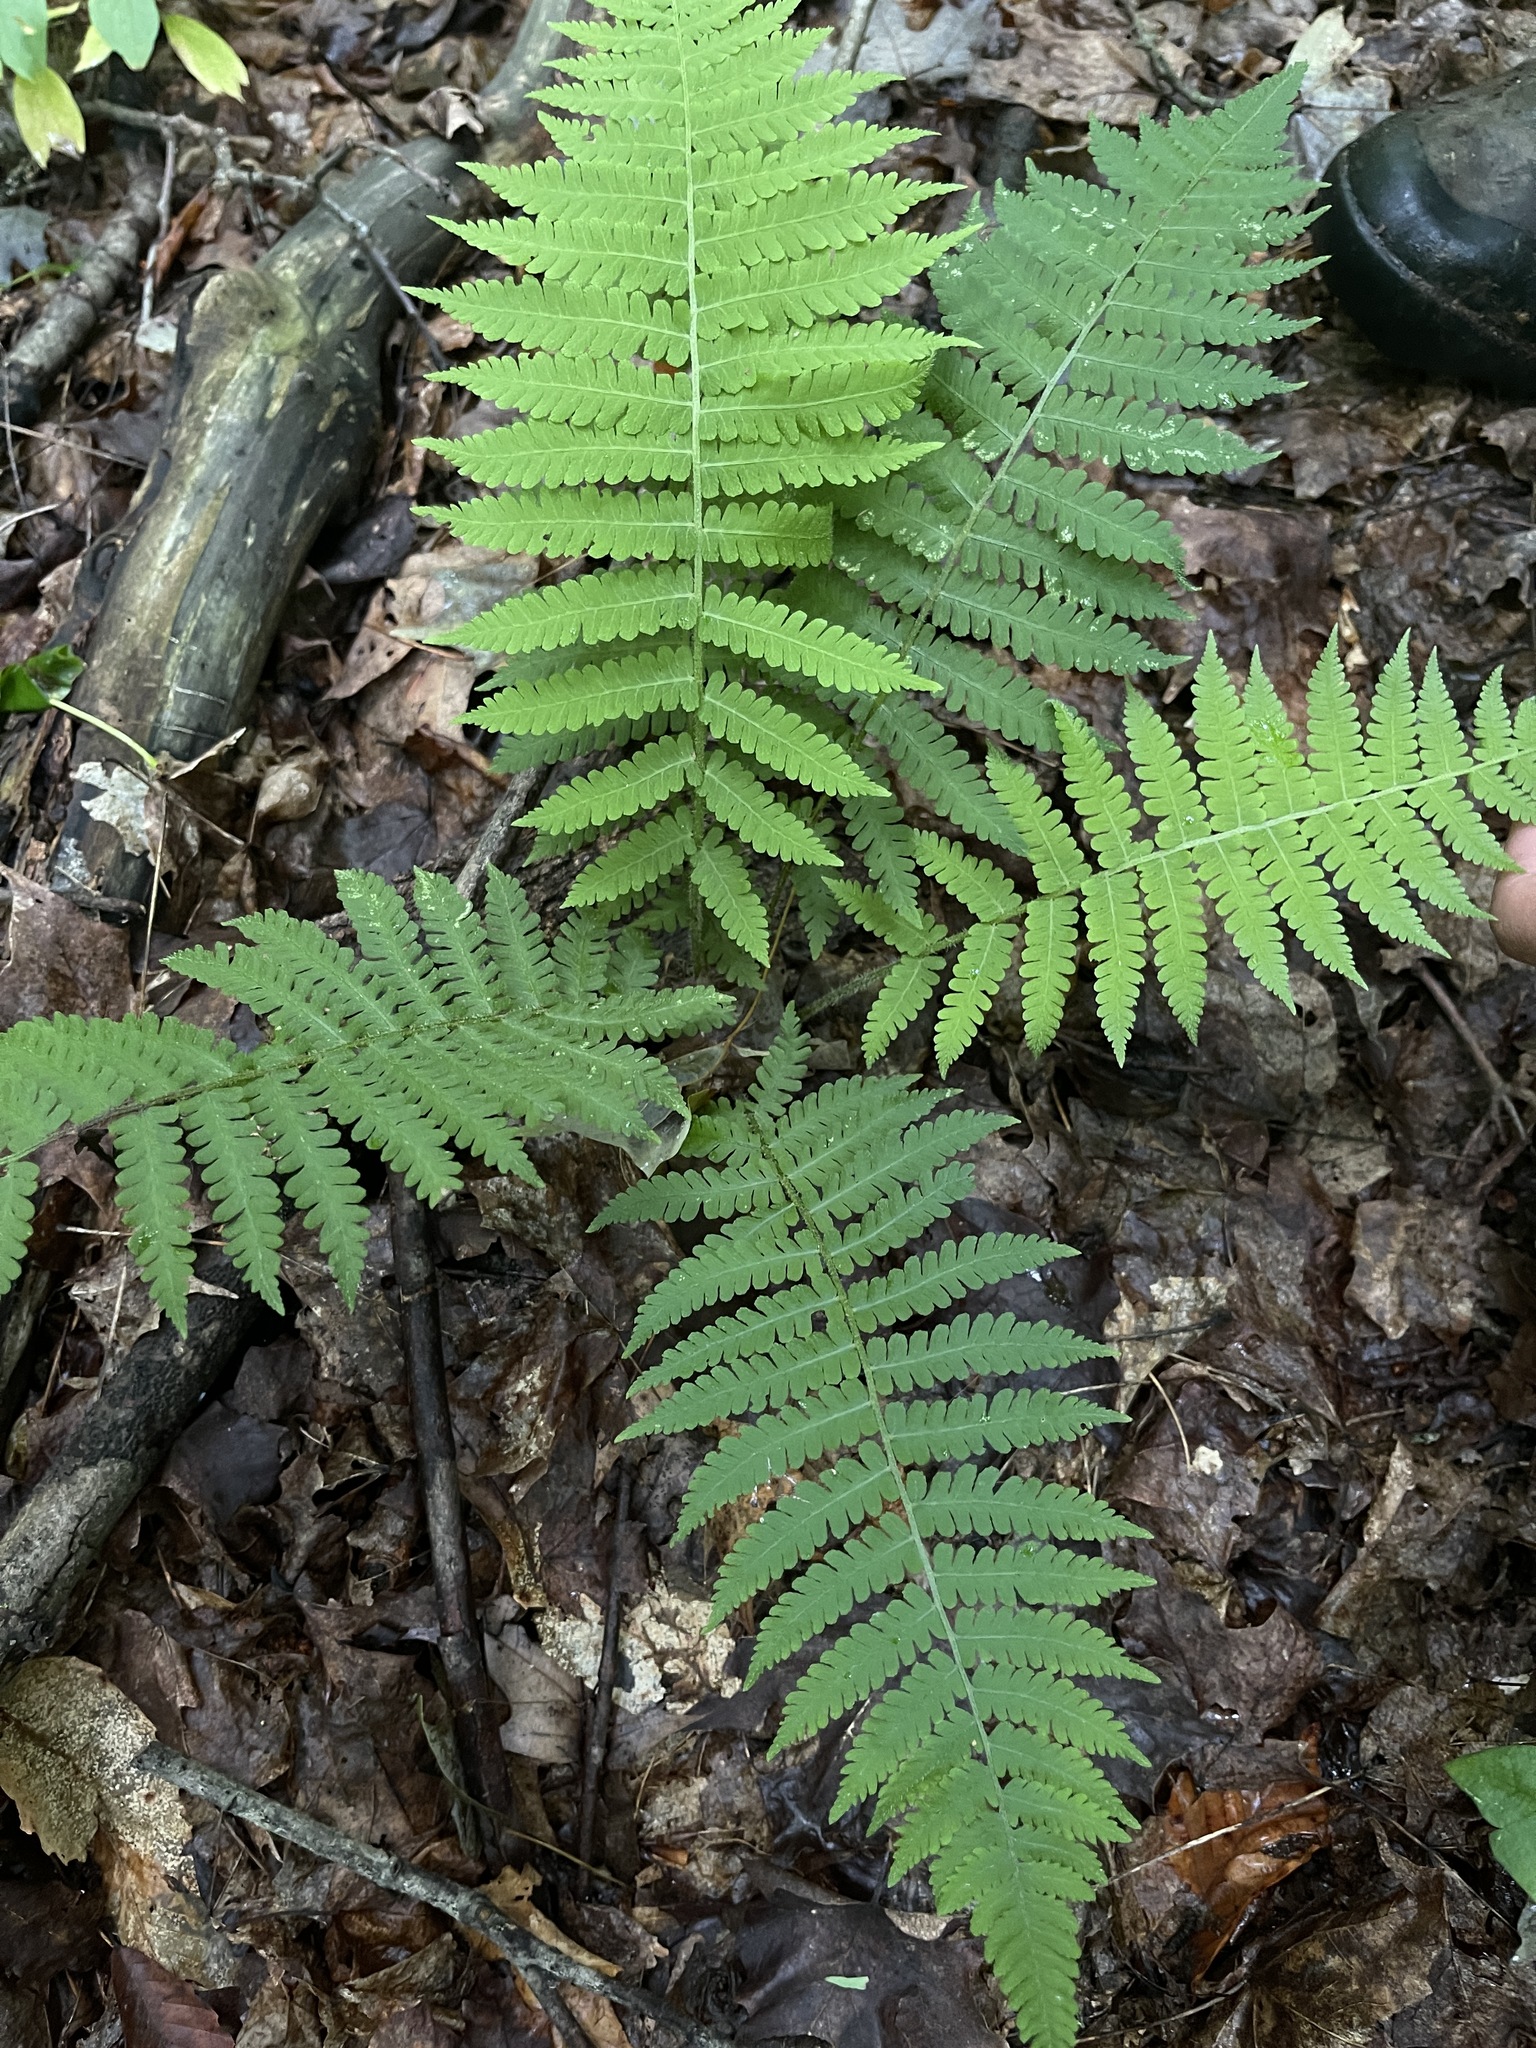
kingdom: Plantae
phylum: Tracheophyta
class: Polypodiopsida
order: Polypodiales
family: Athyriaceae
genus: Deparia
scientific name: Deparia acrostichoides
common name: Silver false spleenwort
